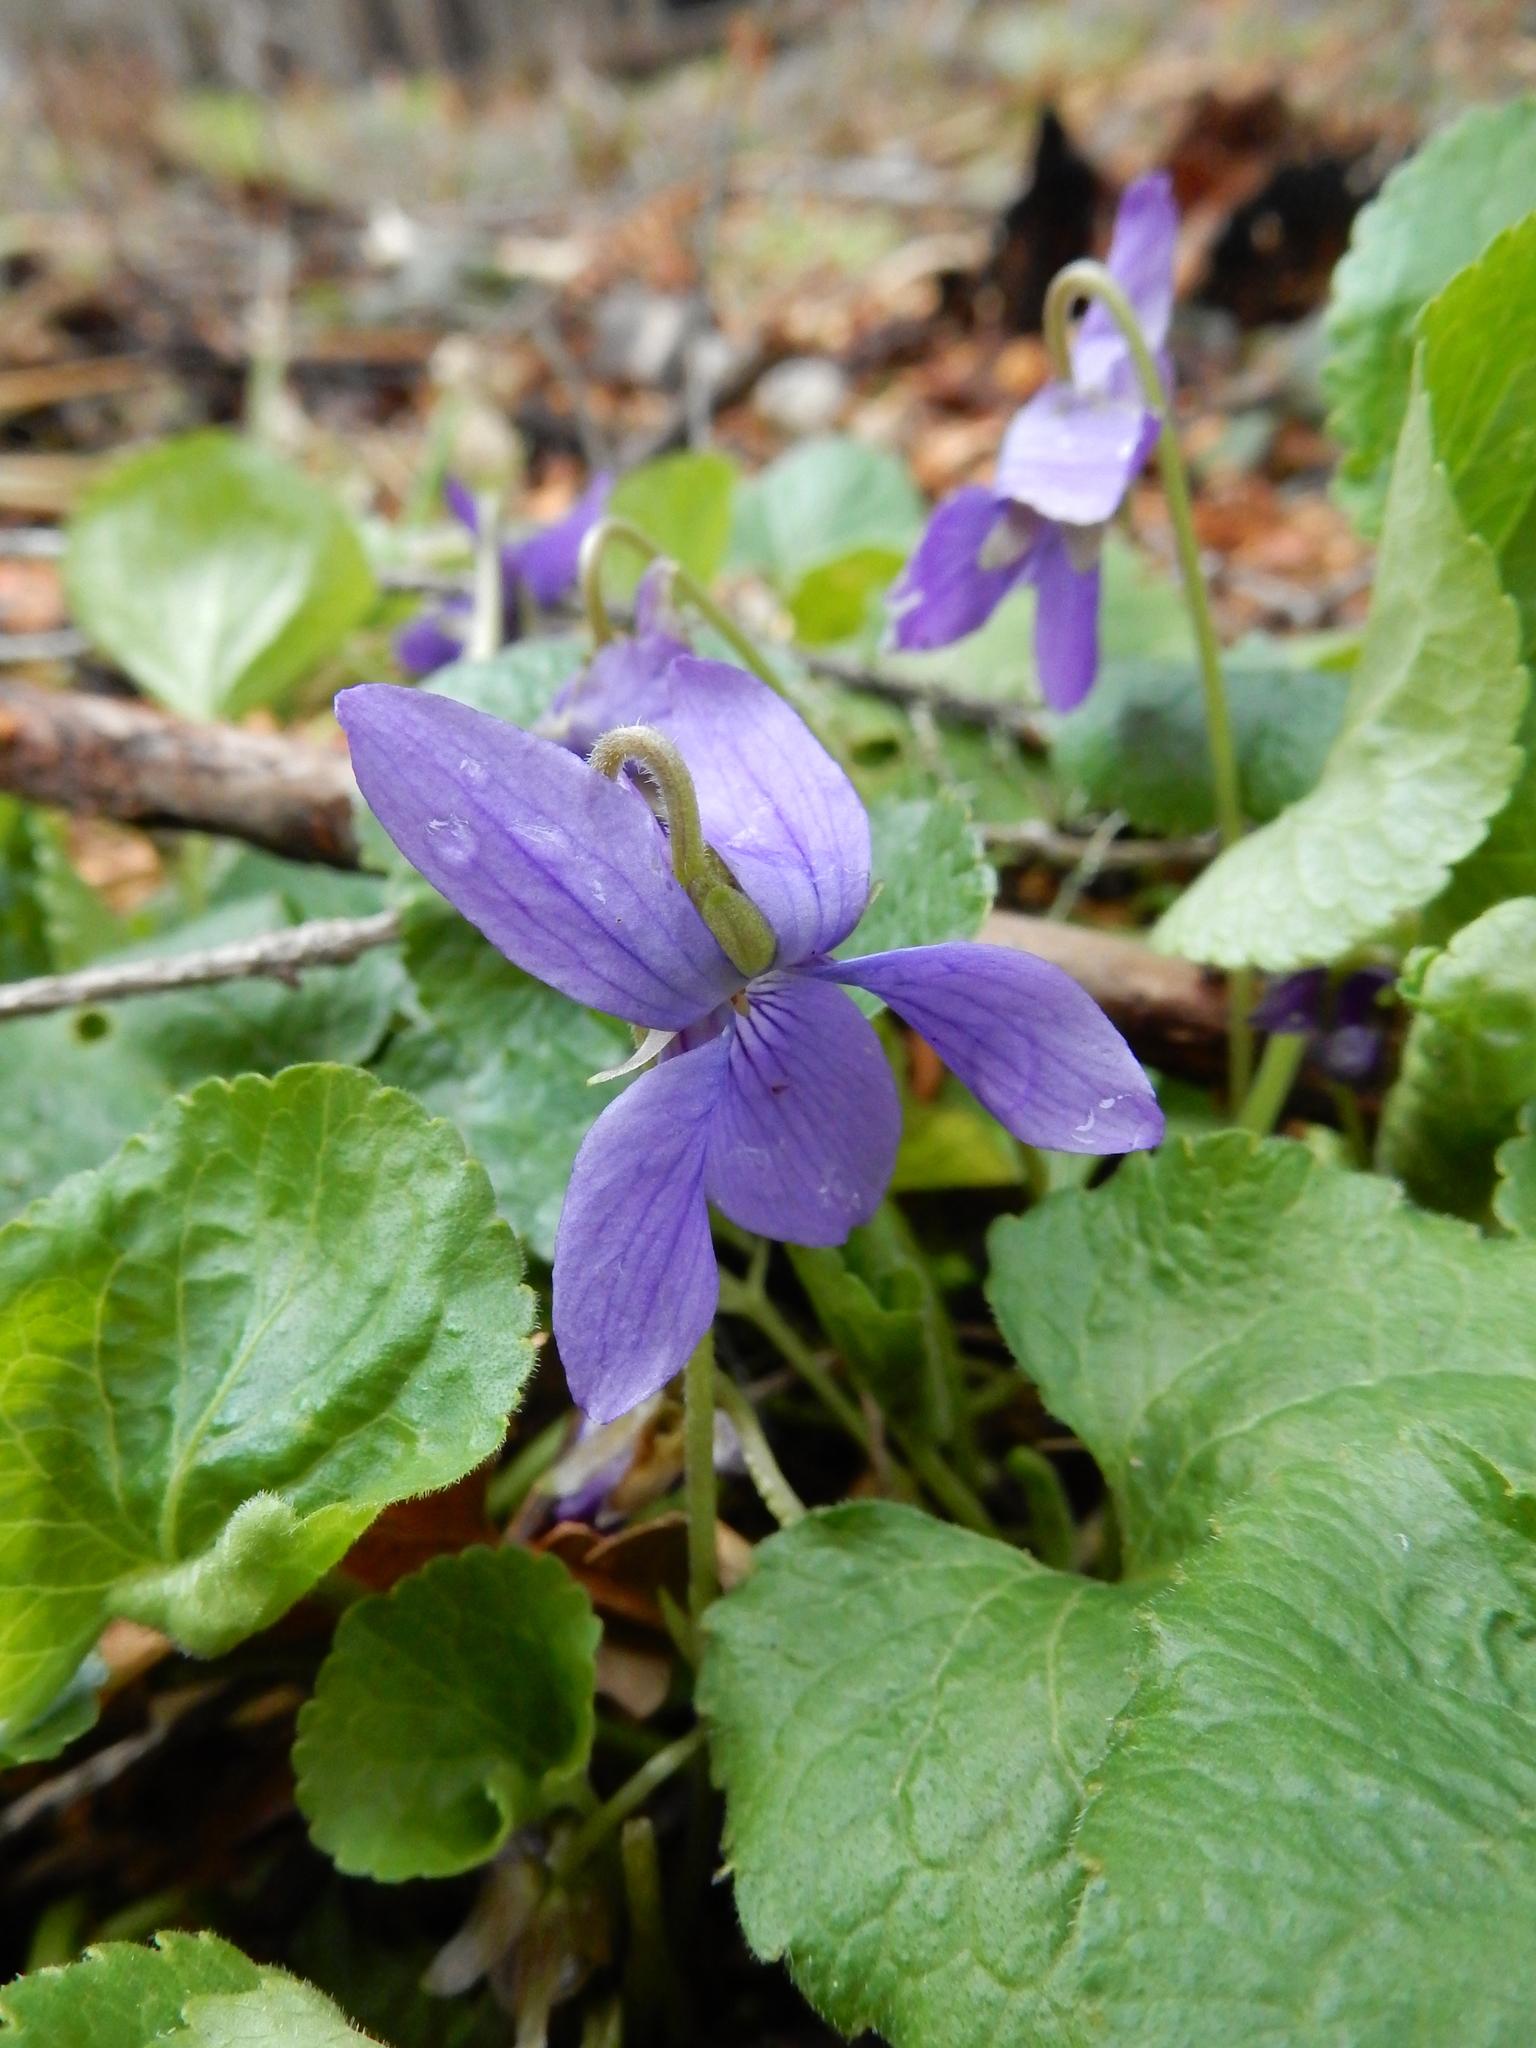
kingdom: Plantae
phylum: Tracheophyta
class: Magnoliopsida
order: Malpighiales
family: Violaceae
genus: Viola
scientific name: Viola odorata
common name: Sweet violet
